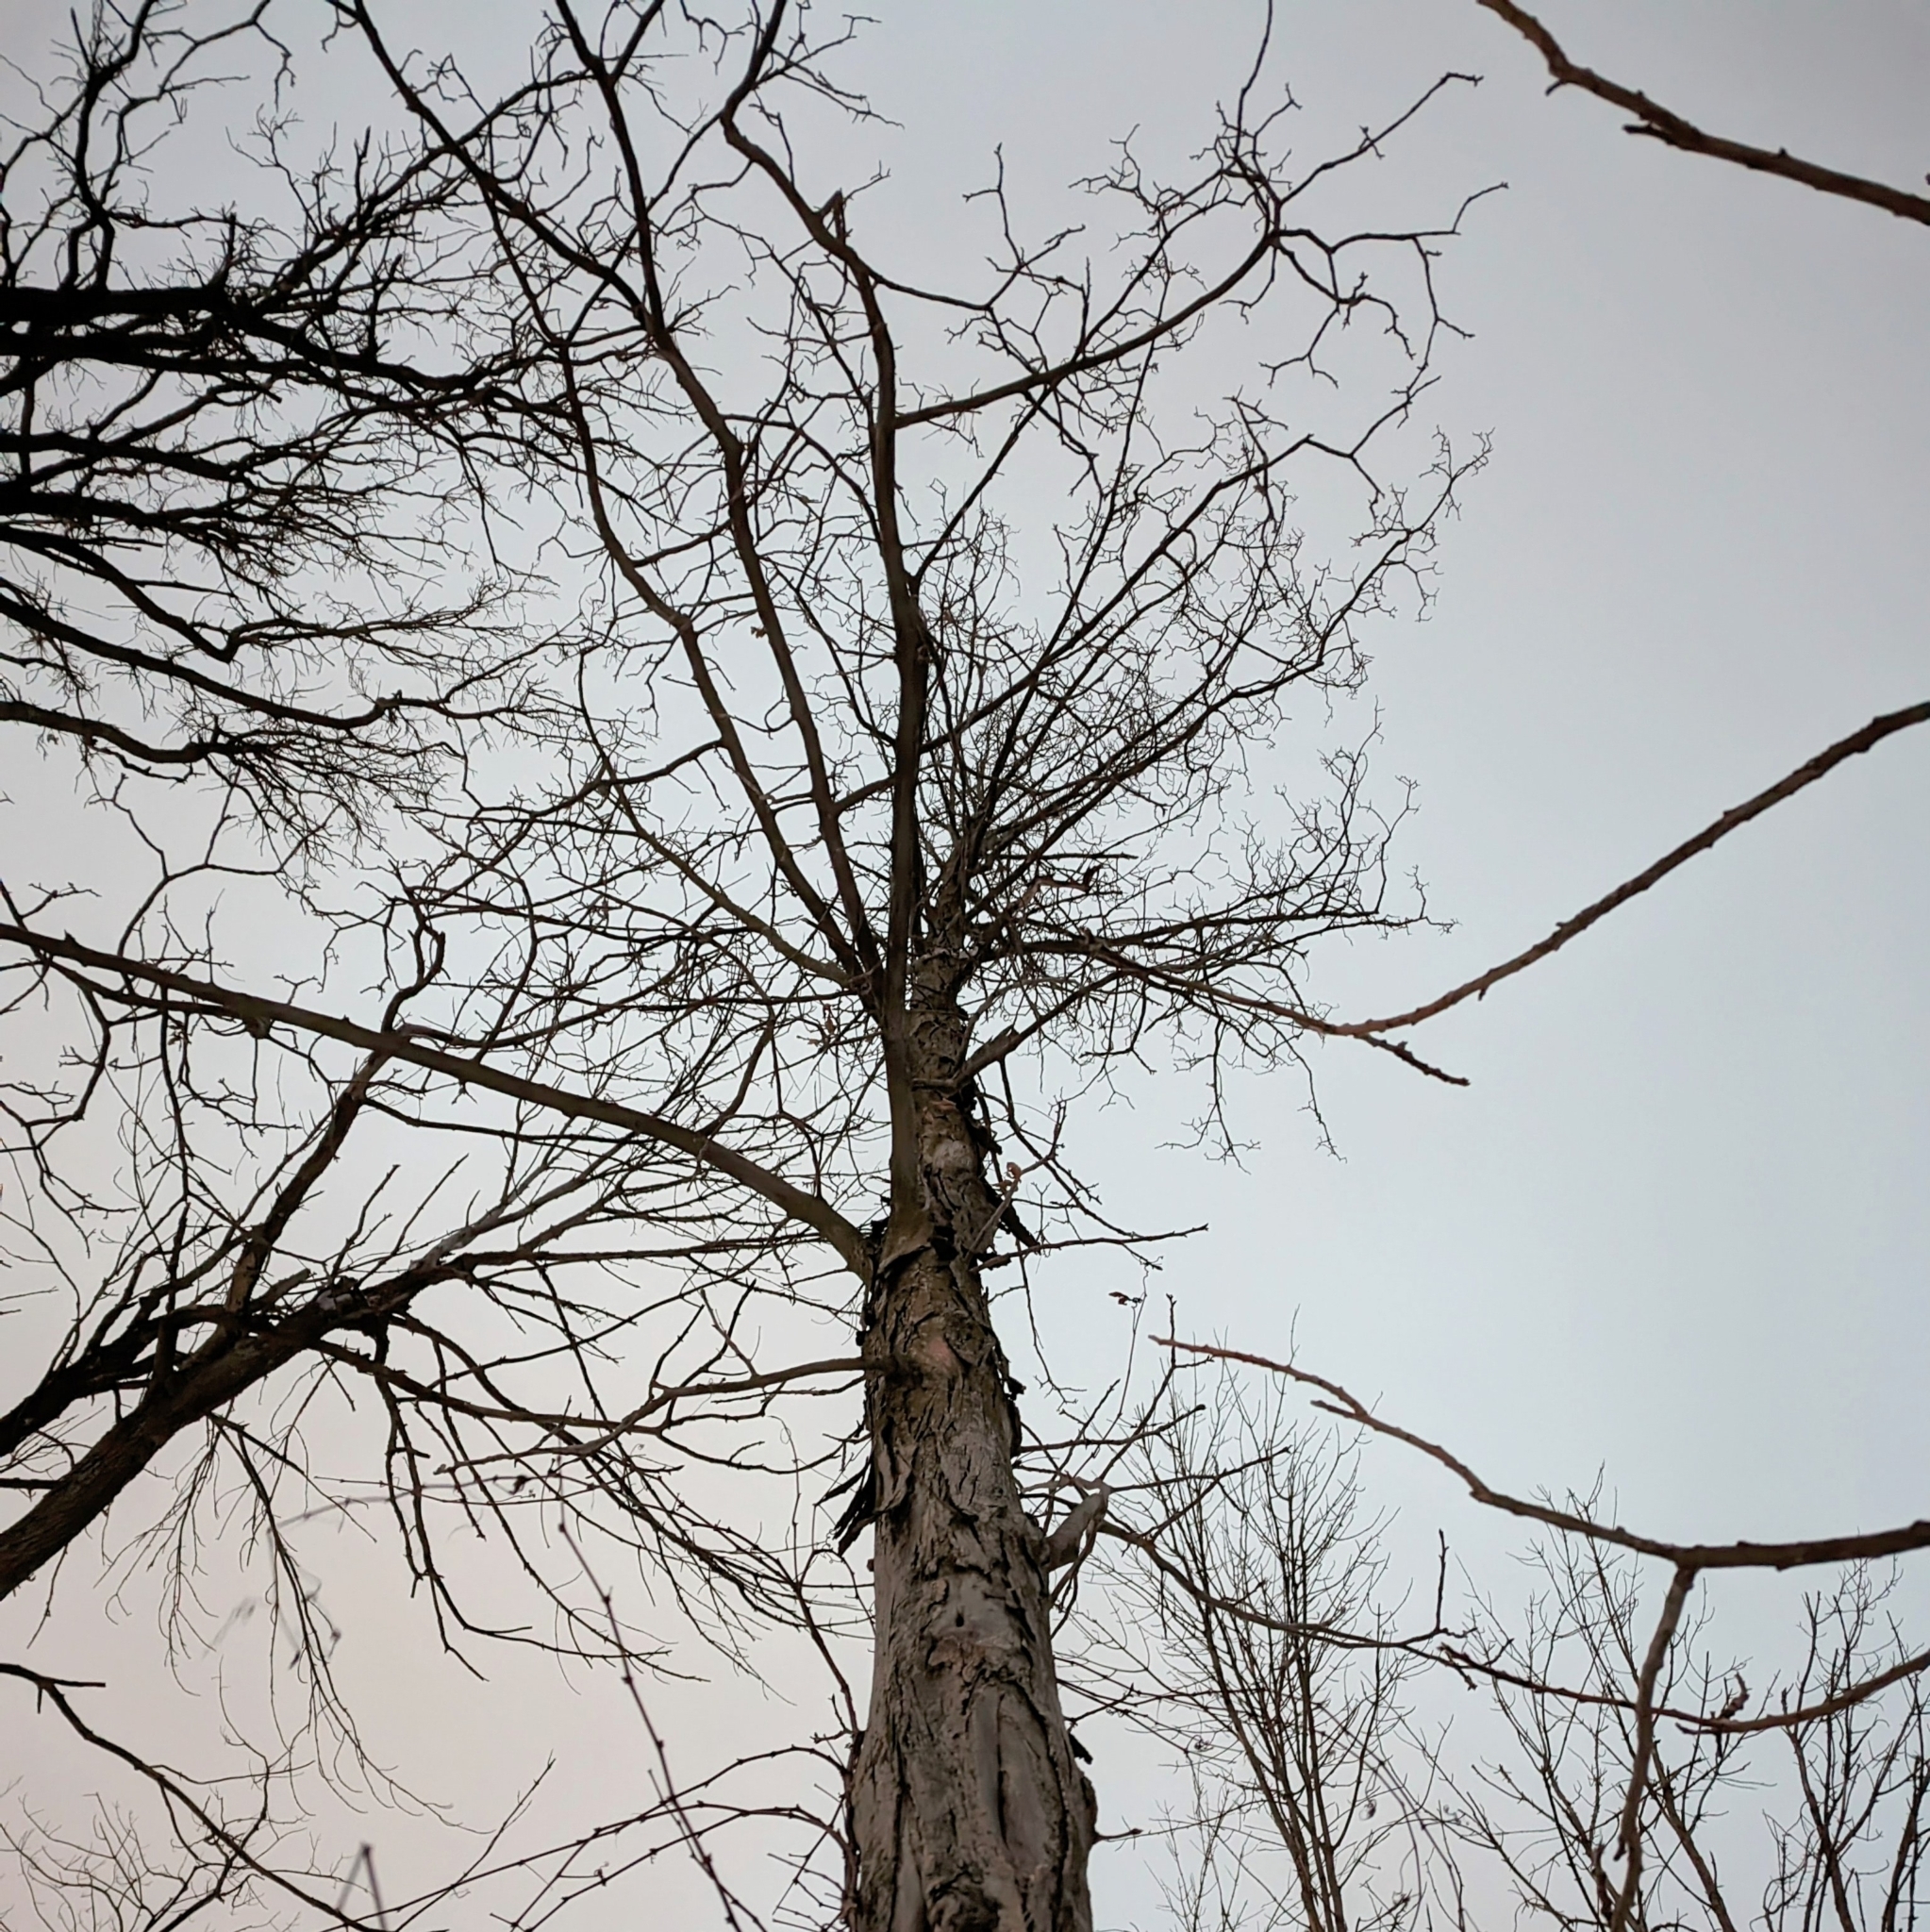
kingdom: Plantae
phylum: Tracheophyta
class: Magnoliopsida
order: Fagales
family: Juglandaceae
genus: Carya
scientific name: Carya ovata
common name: Shagbark hickory
